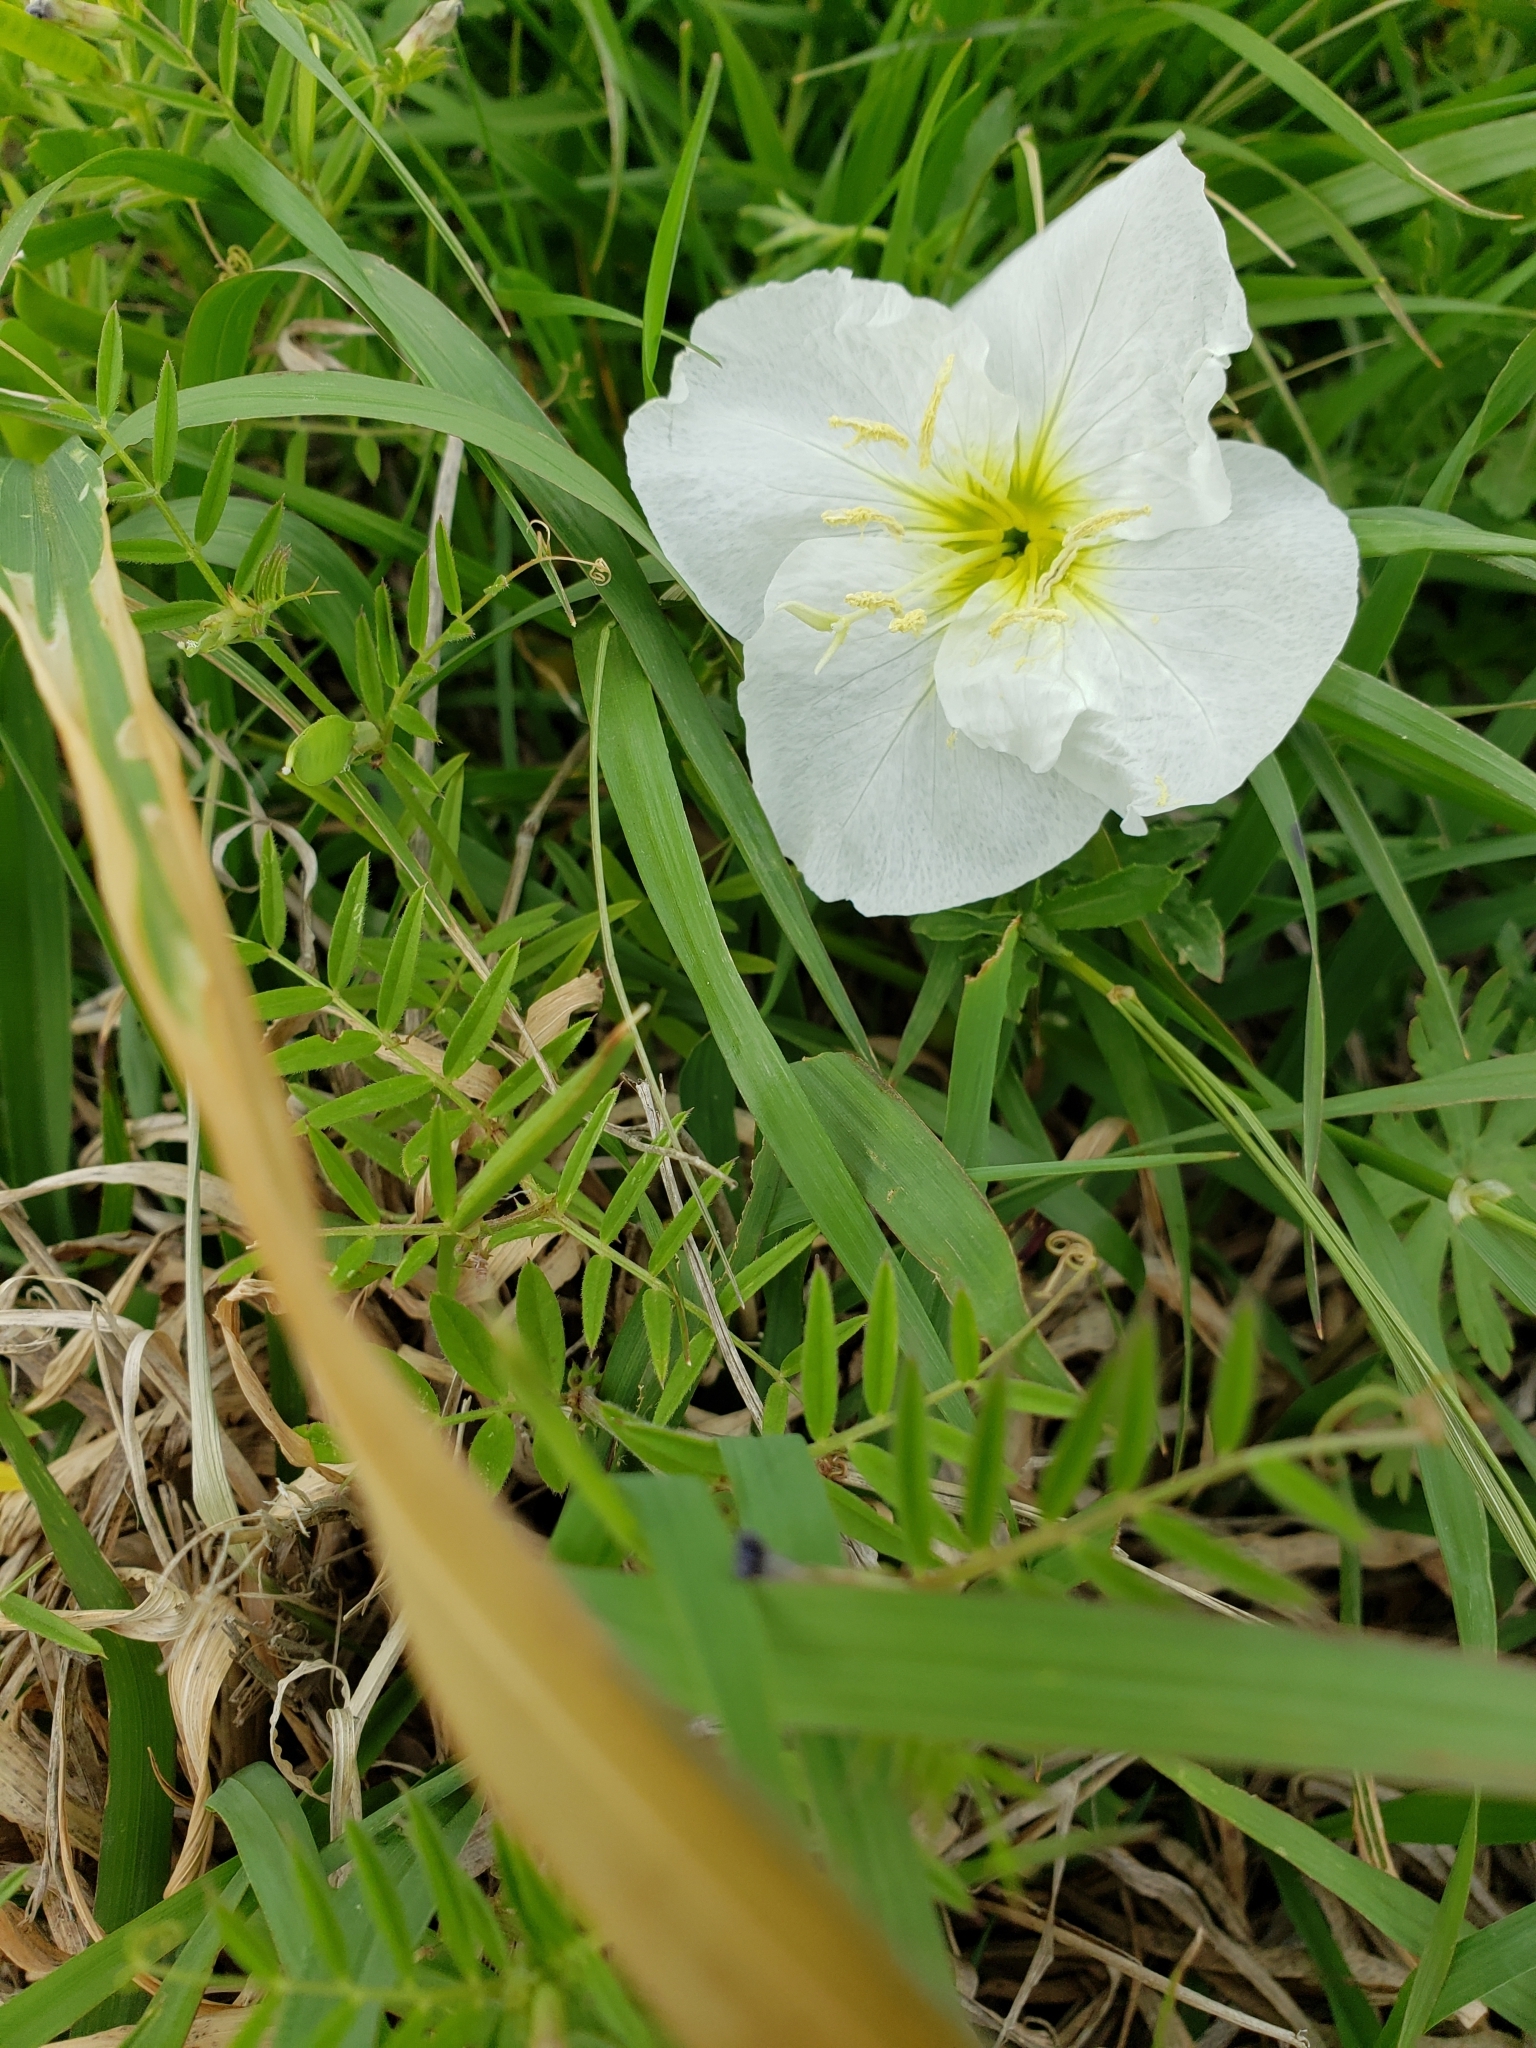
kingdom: Plantae
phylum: Tracheophyta
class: Magnoliopsida
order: Myrtales
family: Onagraceae
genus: Oenothera
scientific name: Oenothera speciosa
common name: White evening-primrose
